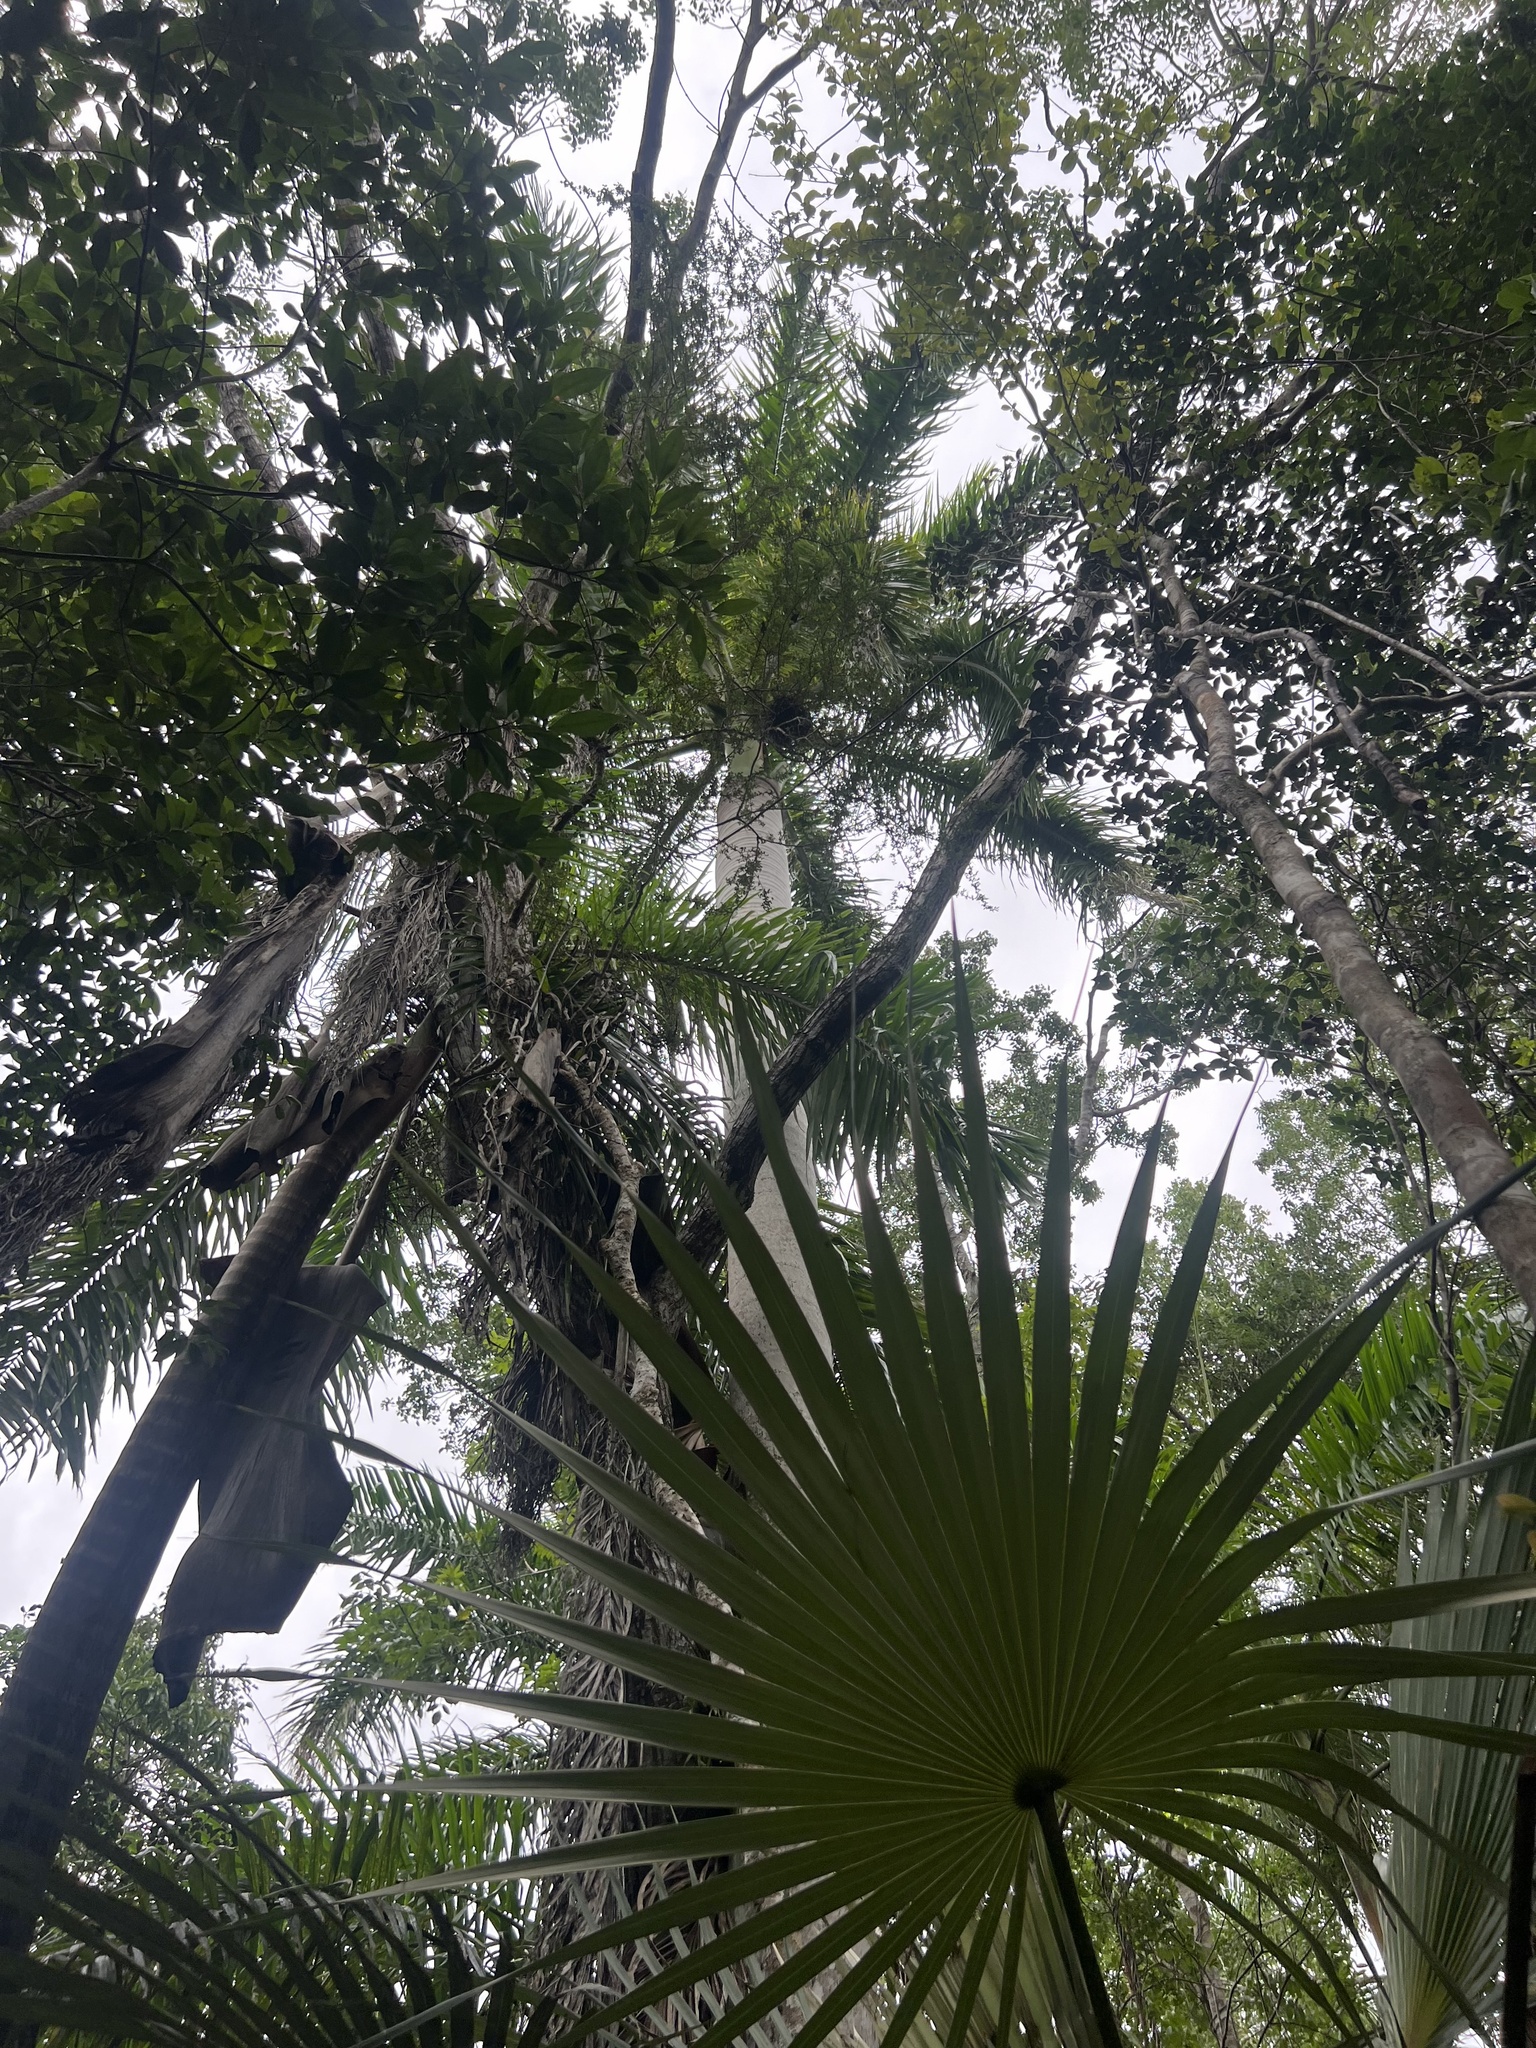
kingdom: Plantae
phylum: Tracheophyta
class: Liliopsida
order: Arecales
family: Arecaceae
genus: Roystonea
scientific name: Roystonea regia
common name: Florida royal palm
